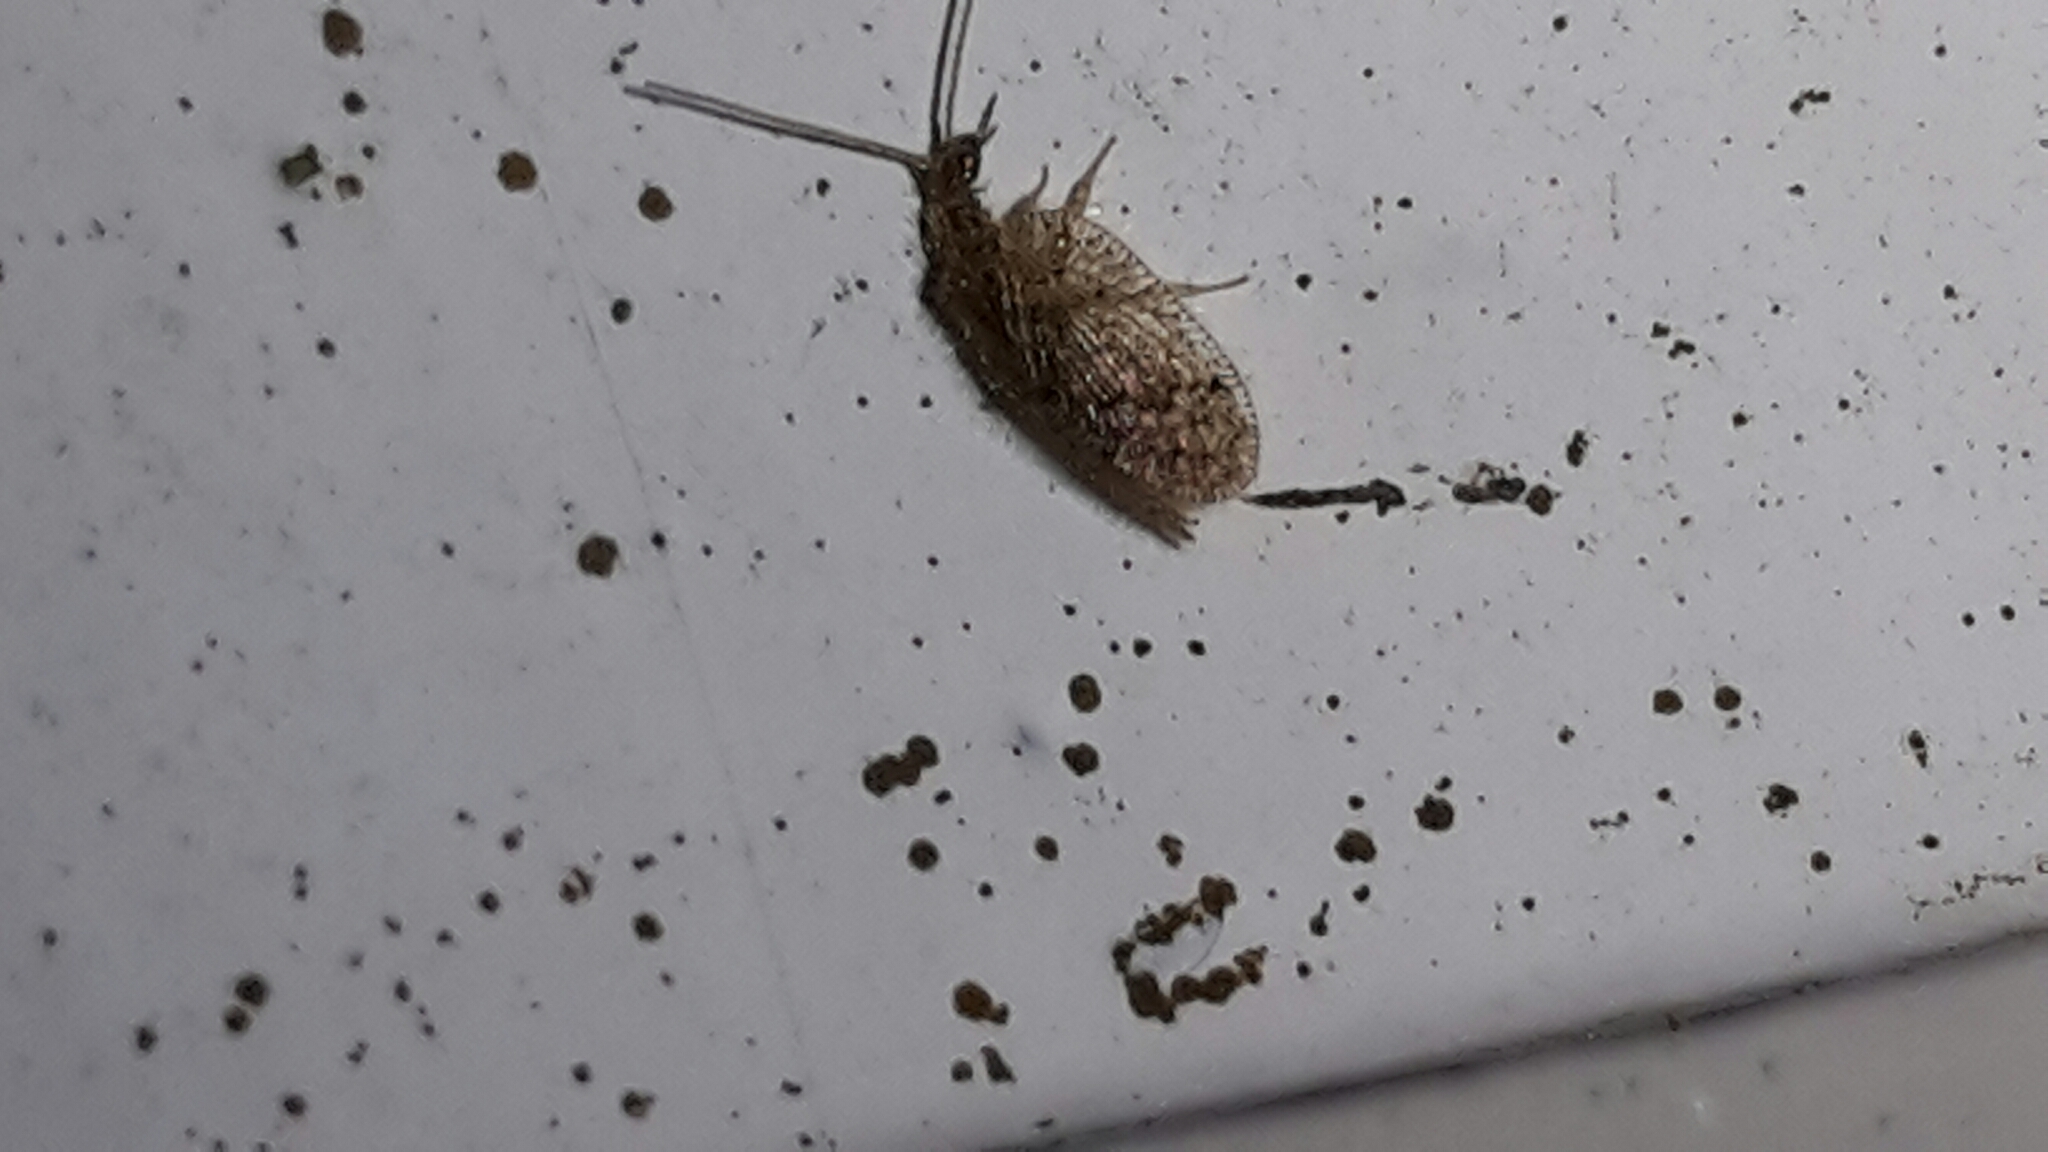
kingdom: Animalia
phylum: Arthropoda
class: Insecta
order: Neuroptera
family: Hemerobiidae
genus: Psectra
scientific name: Psectra nakaharai
